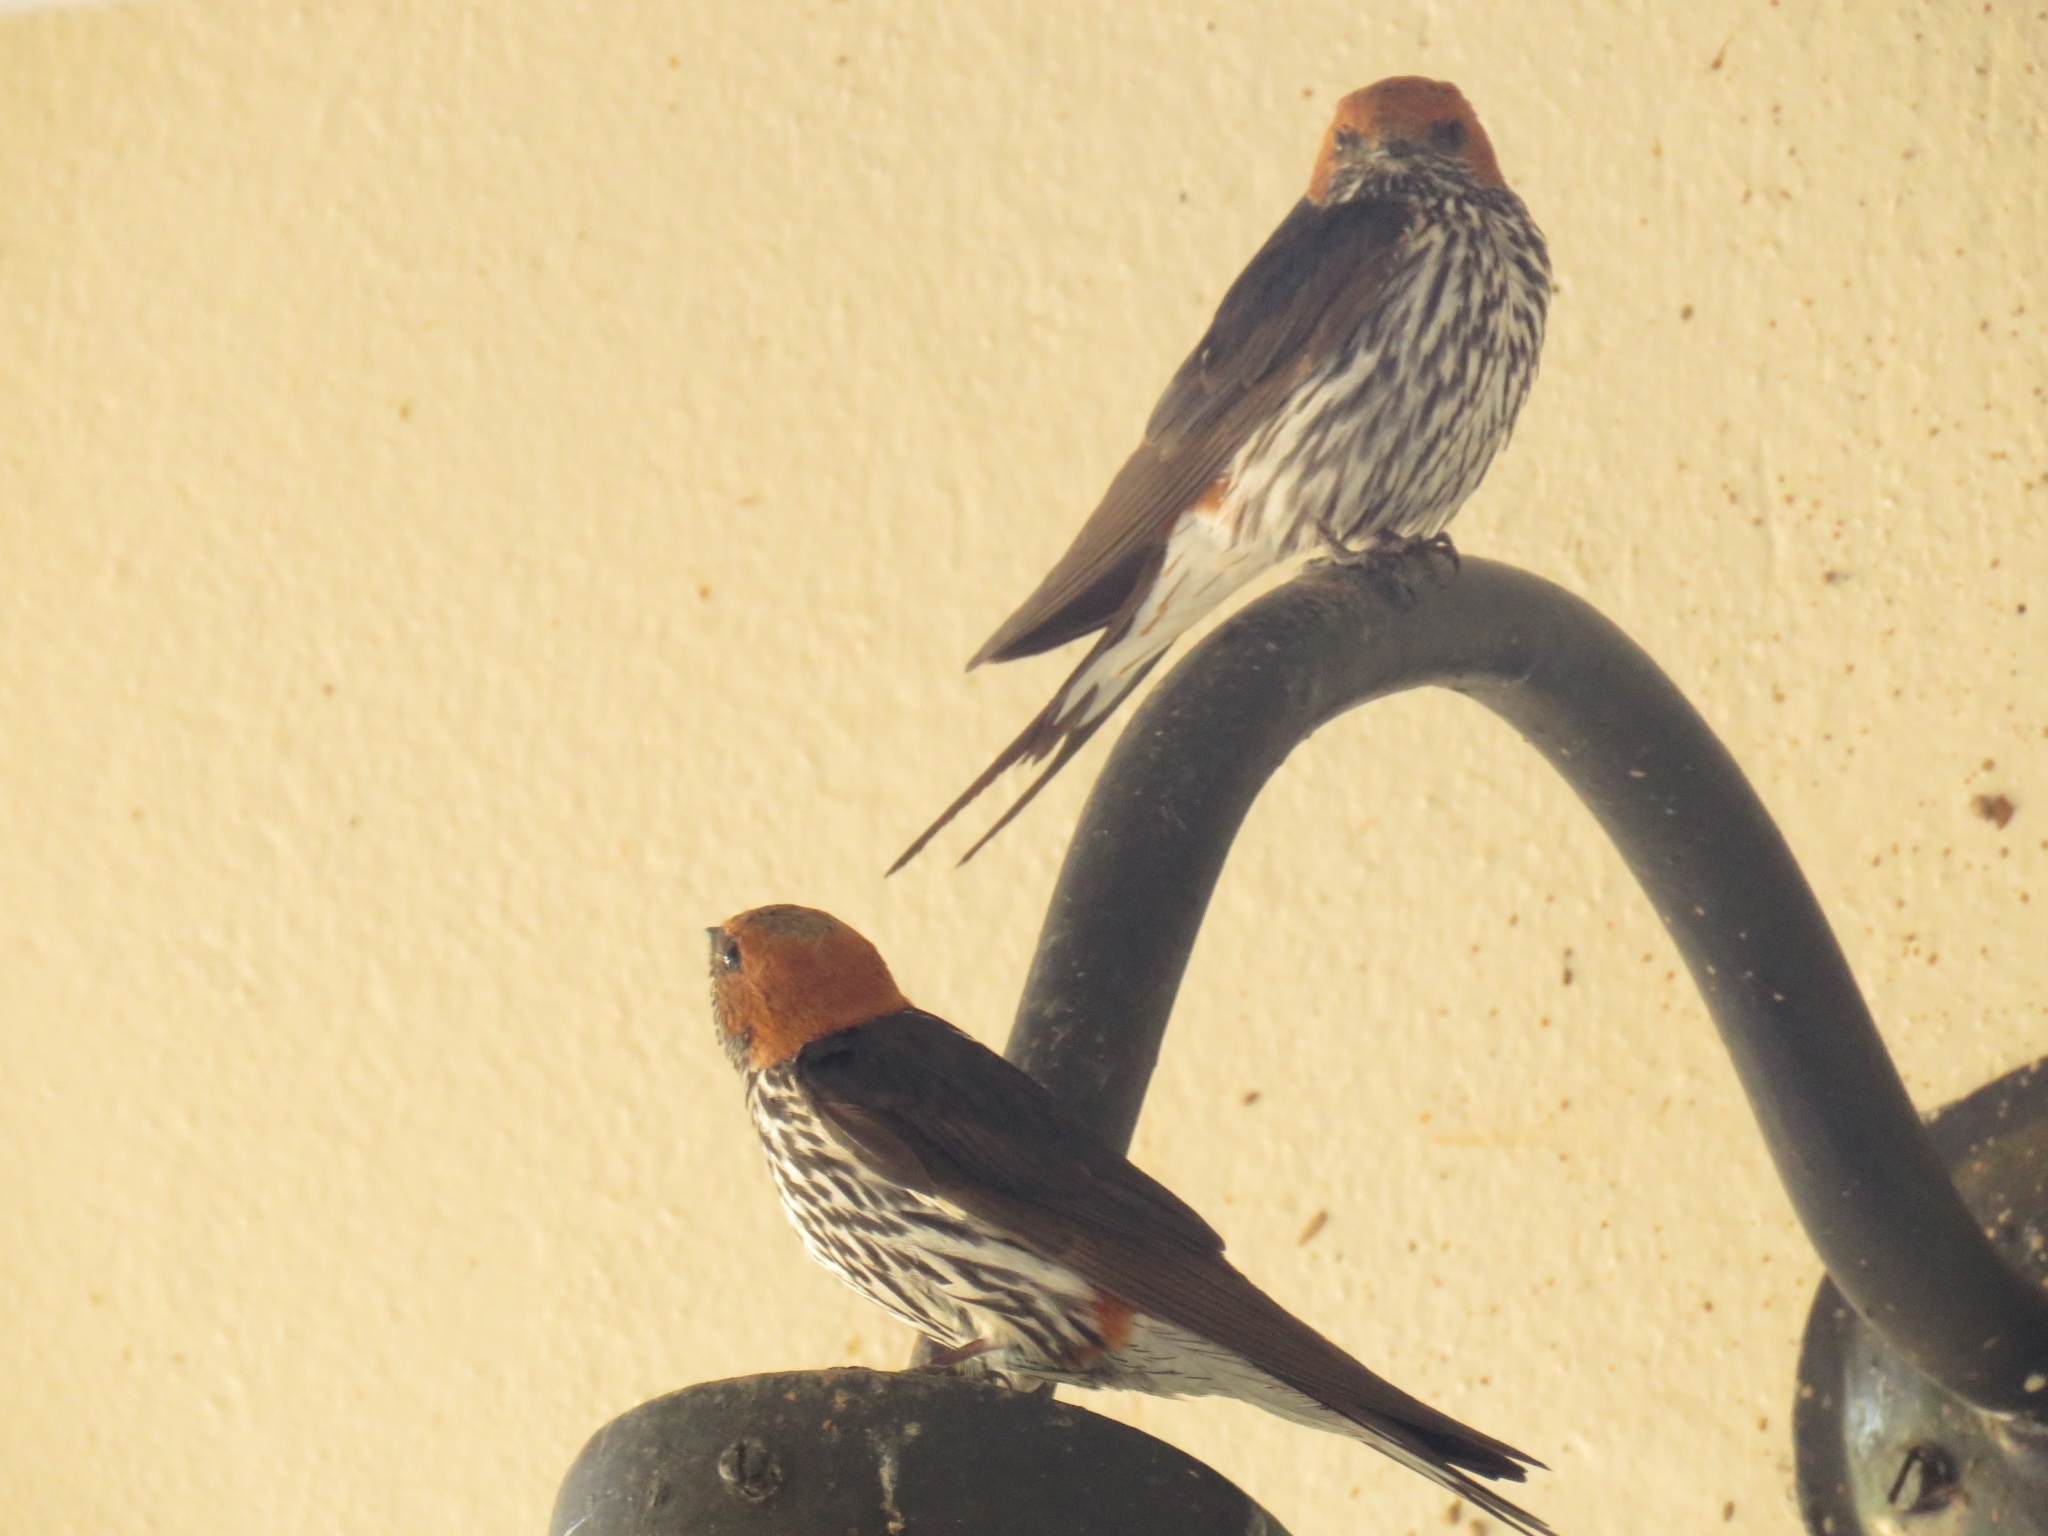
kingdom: Animalia
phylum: Chordata
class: Aves
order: Passeriformes
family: Hirundinidae
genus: Cecropis
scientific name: Cecropis abyssinica
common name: Lesser striped-swallow
